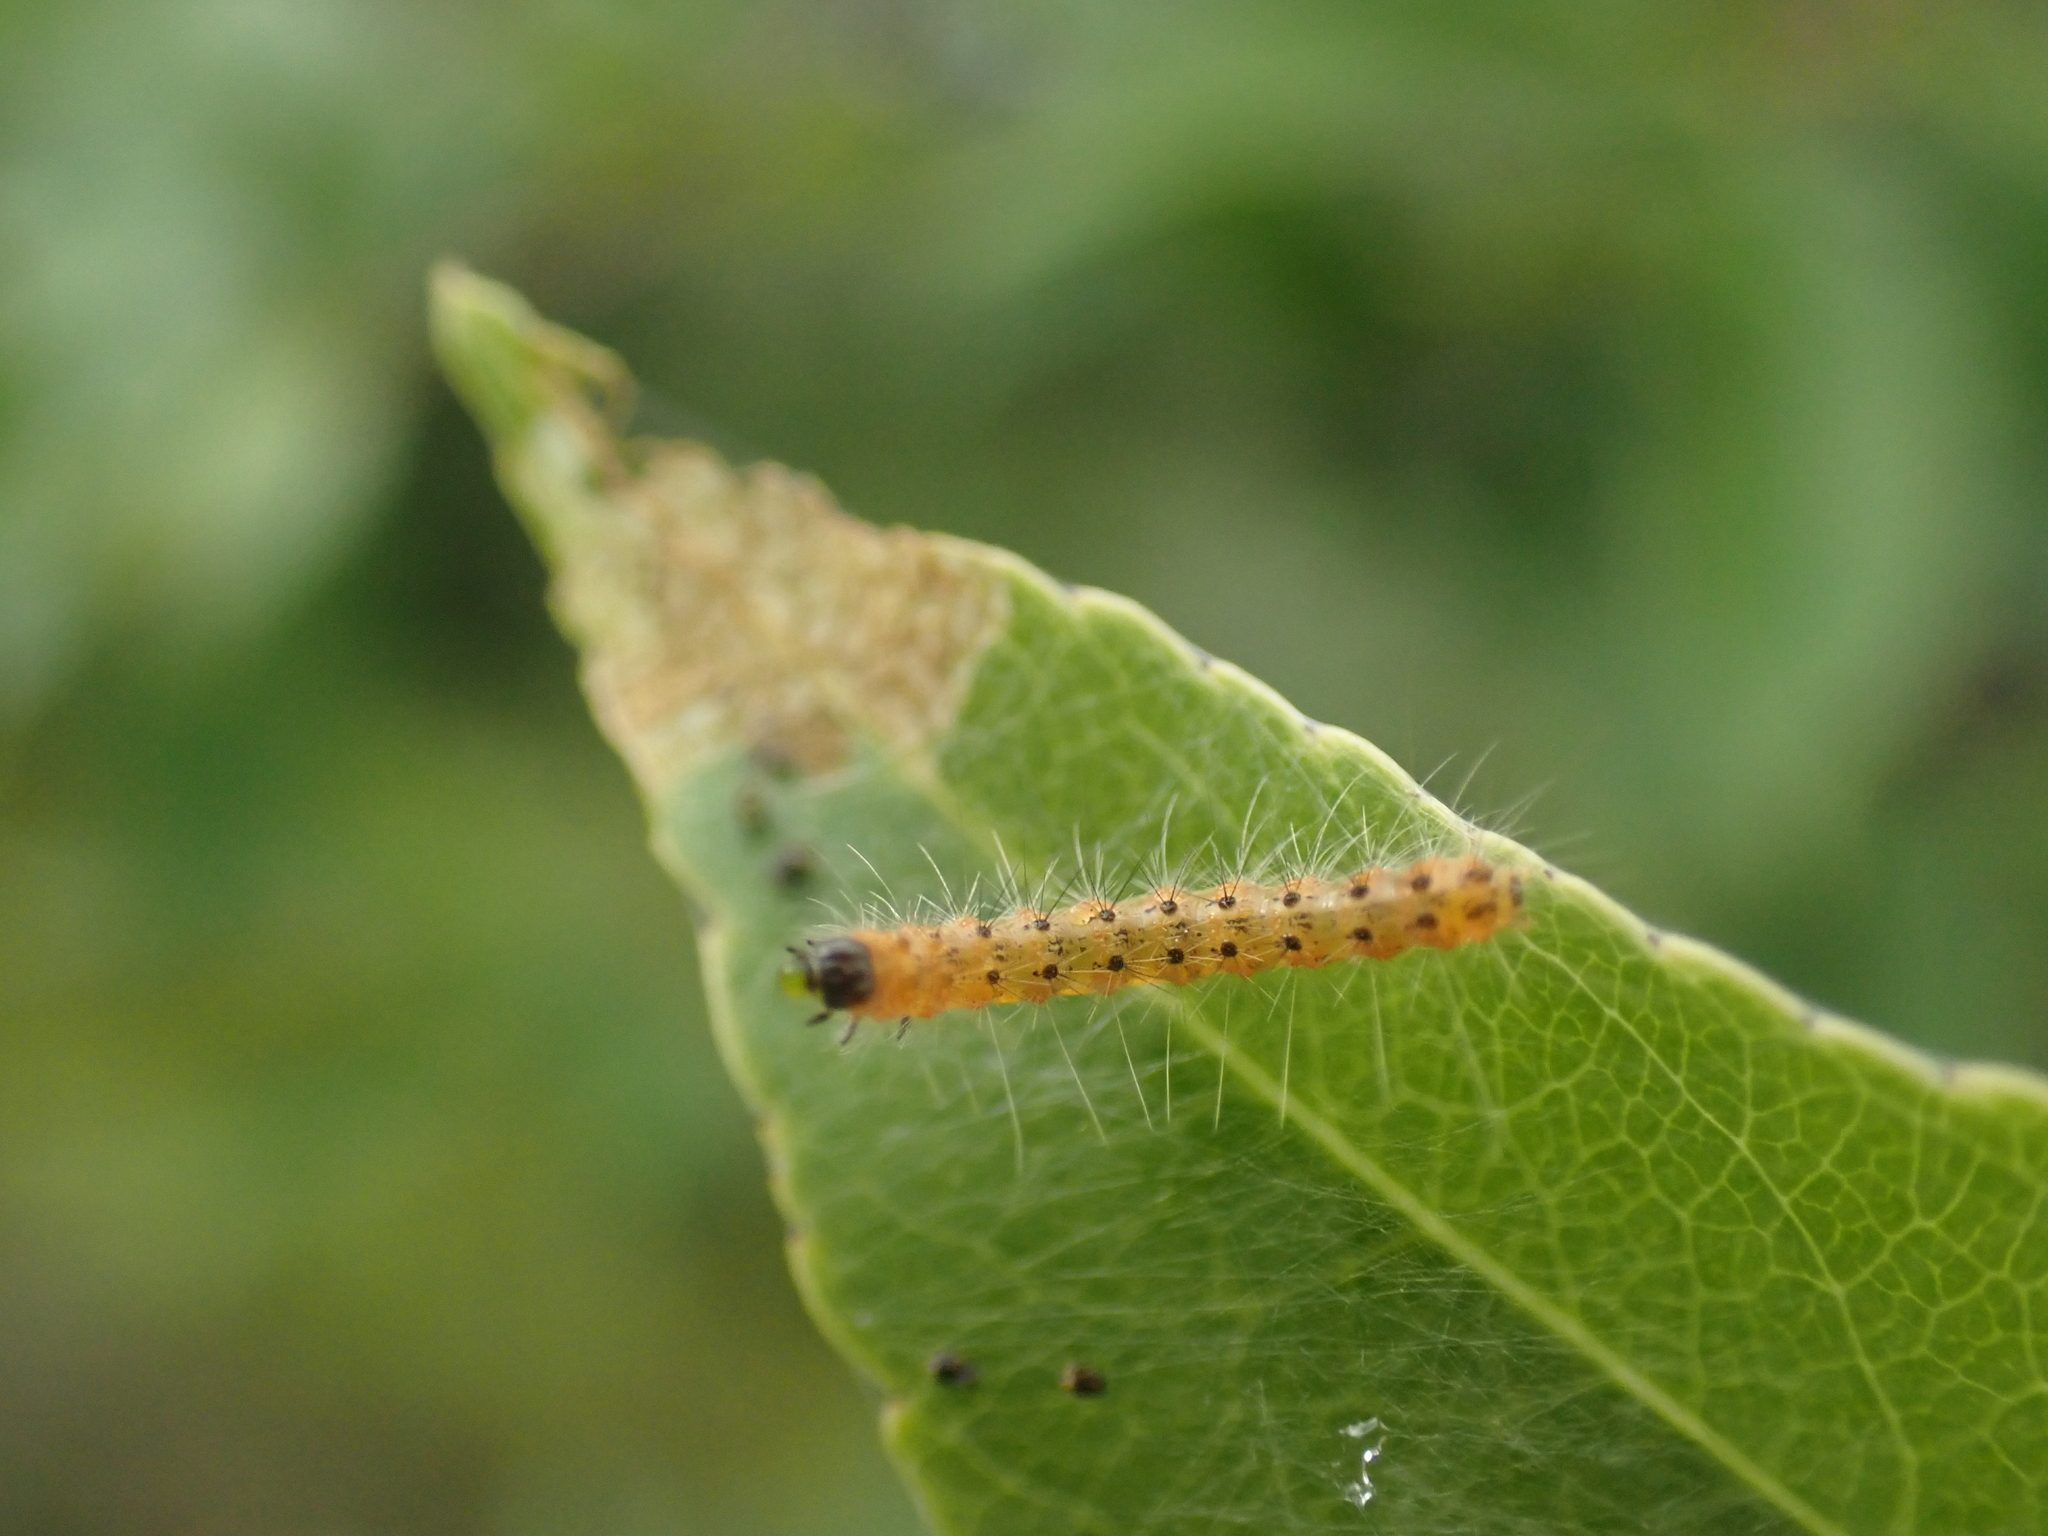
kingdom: Animalia
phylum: Arthropoda
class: Insecta
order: Lepidoptera
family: Erebidae
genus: Hyphantria
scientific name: Hyphantria cunea
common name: American white moth
